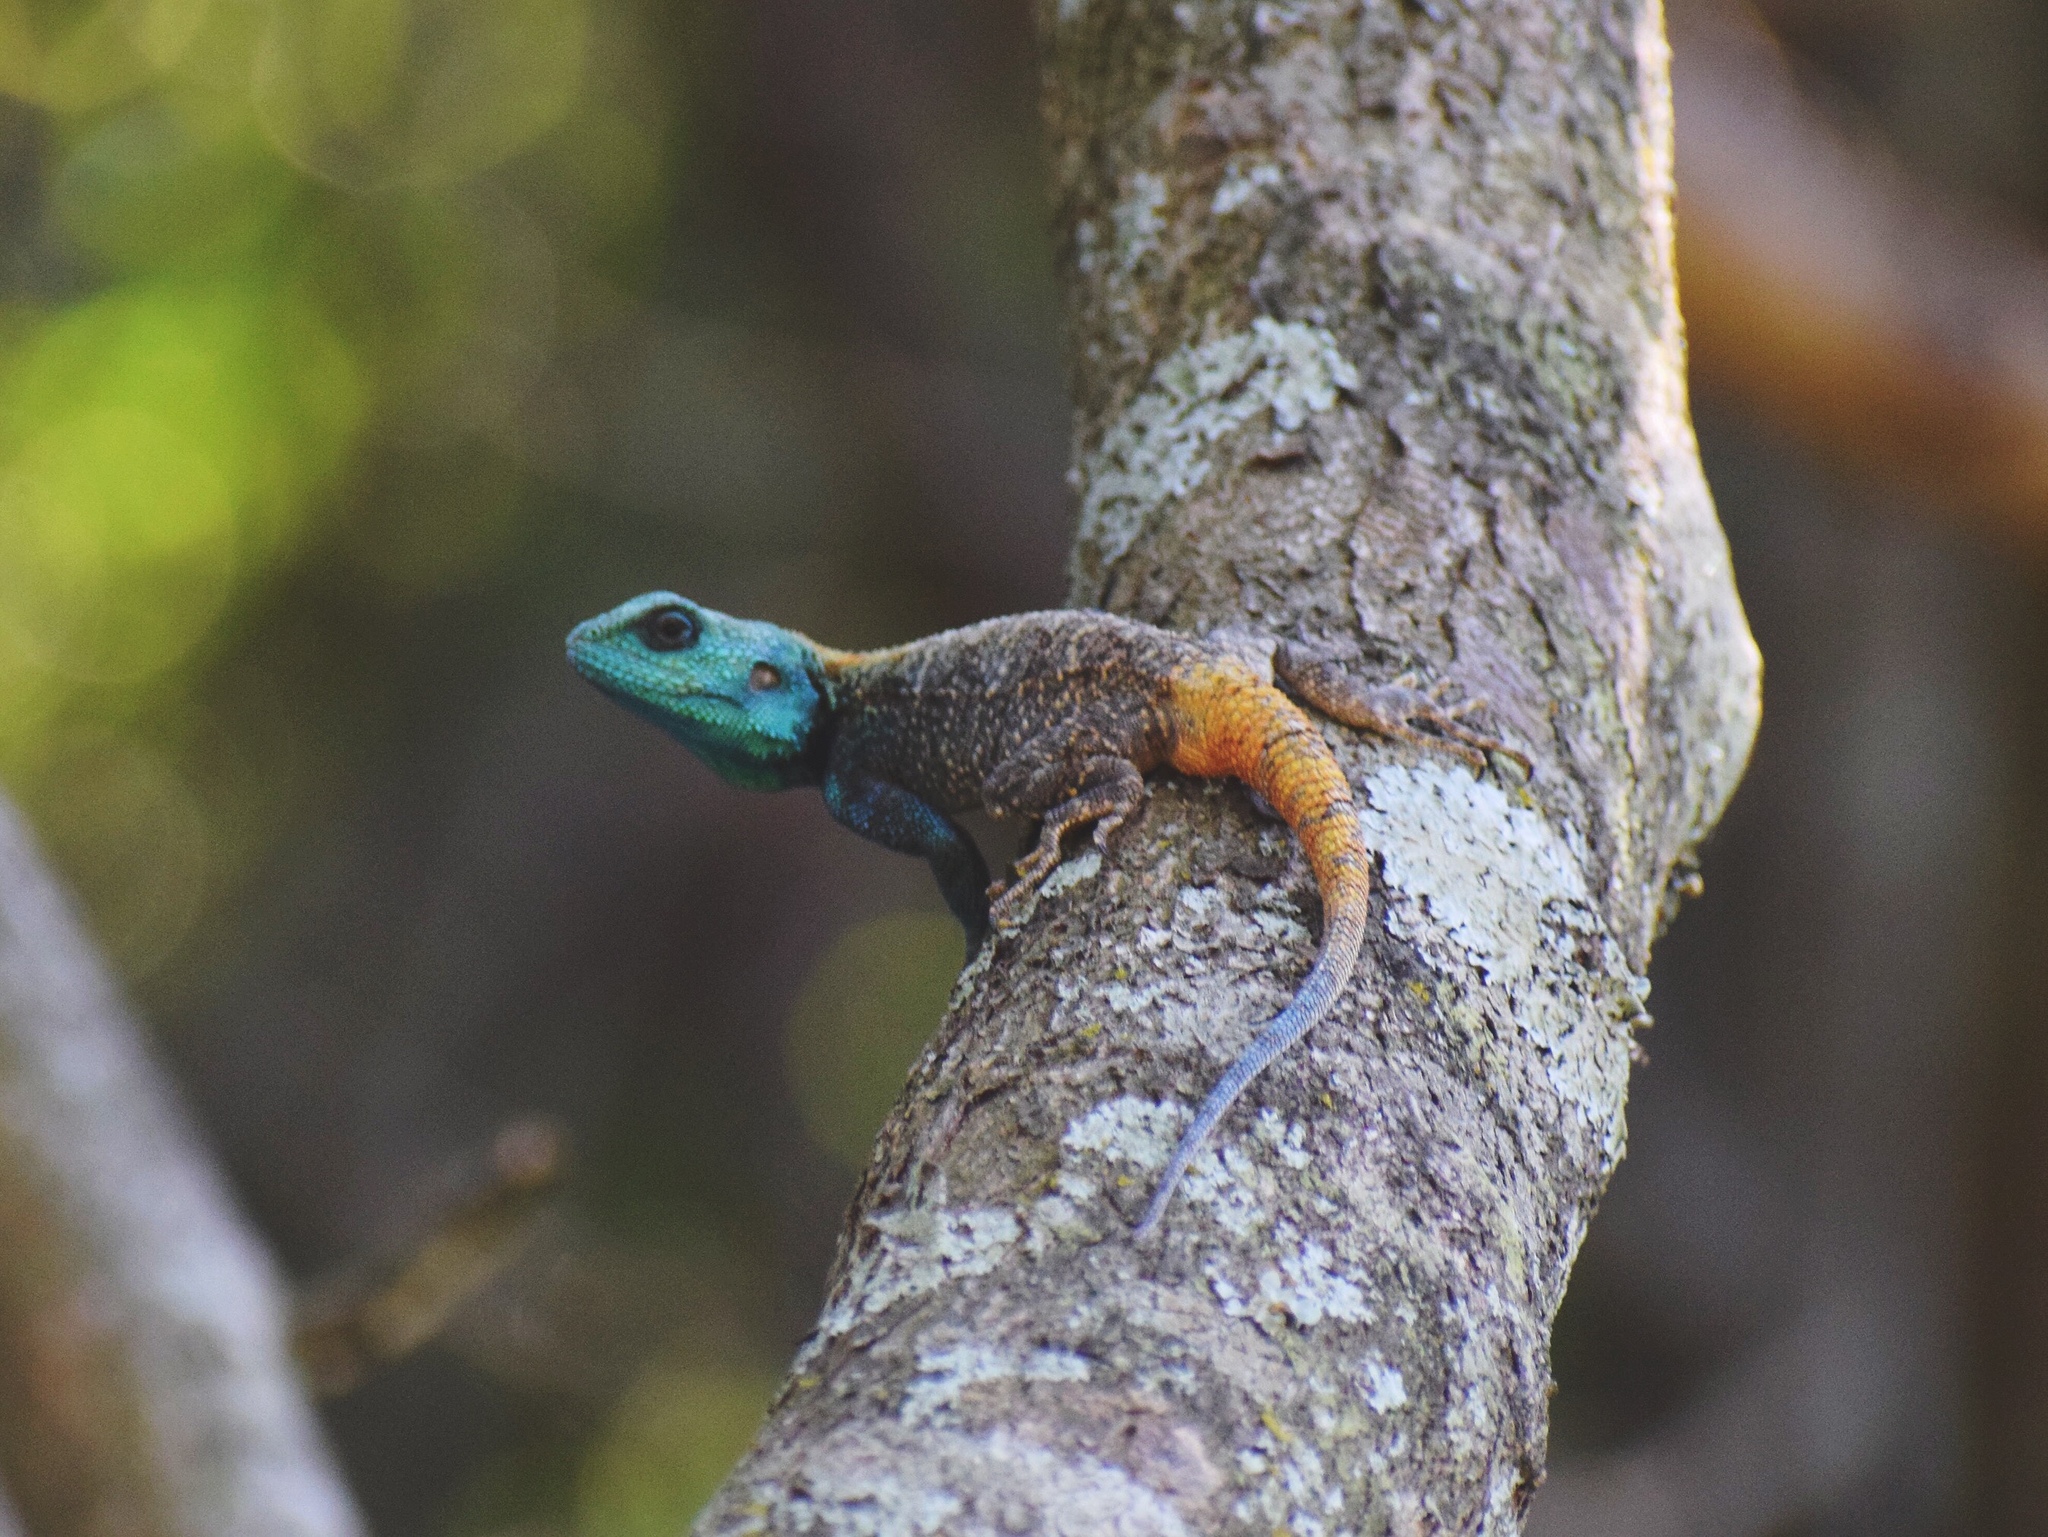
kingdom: Animalia
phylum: Chordata
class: Squamata
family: Agamidae
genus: Acanthocercus
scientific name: Acanthocercus atricollis
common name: Southern tree agama
